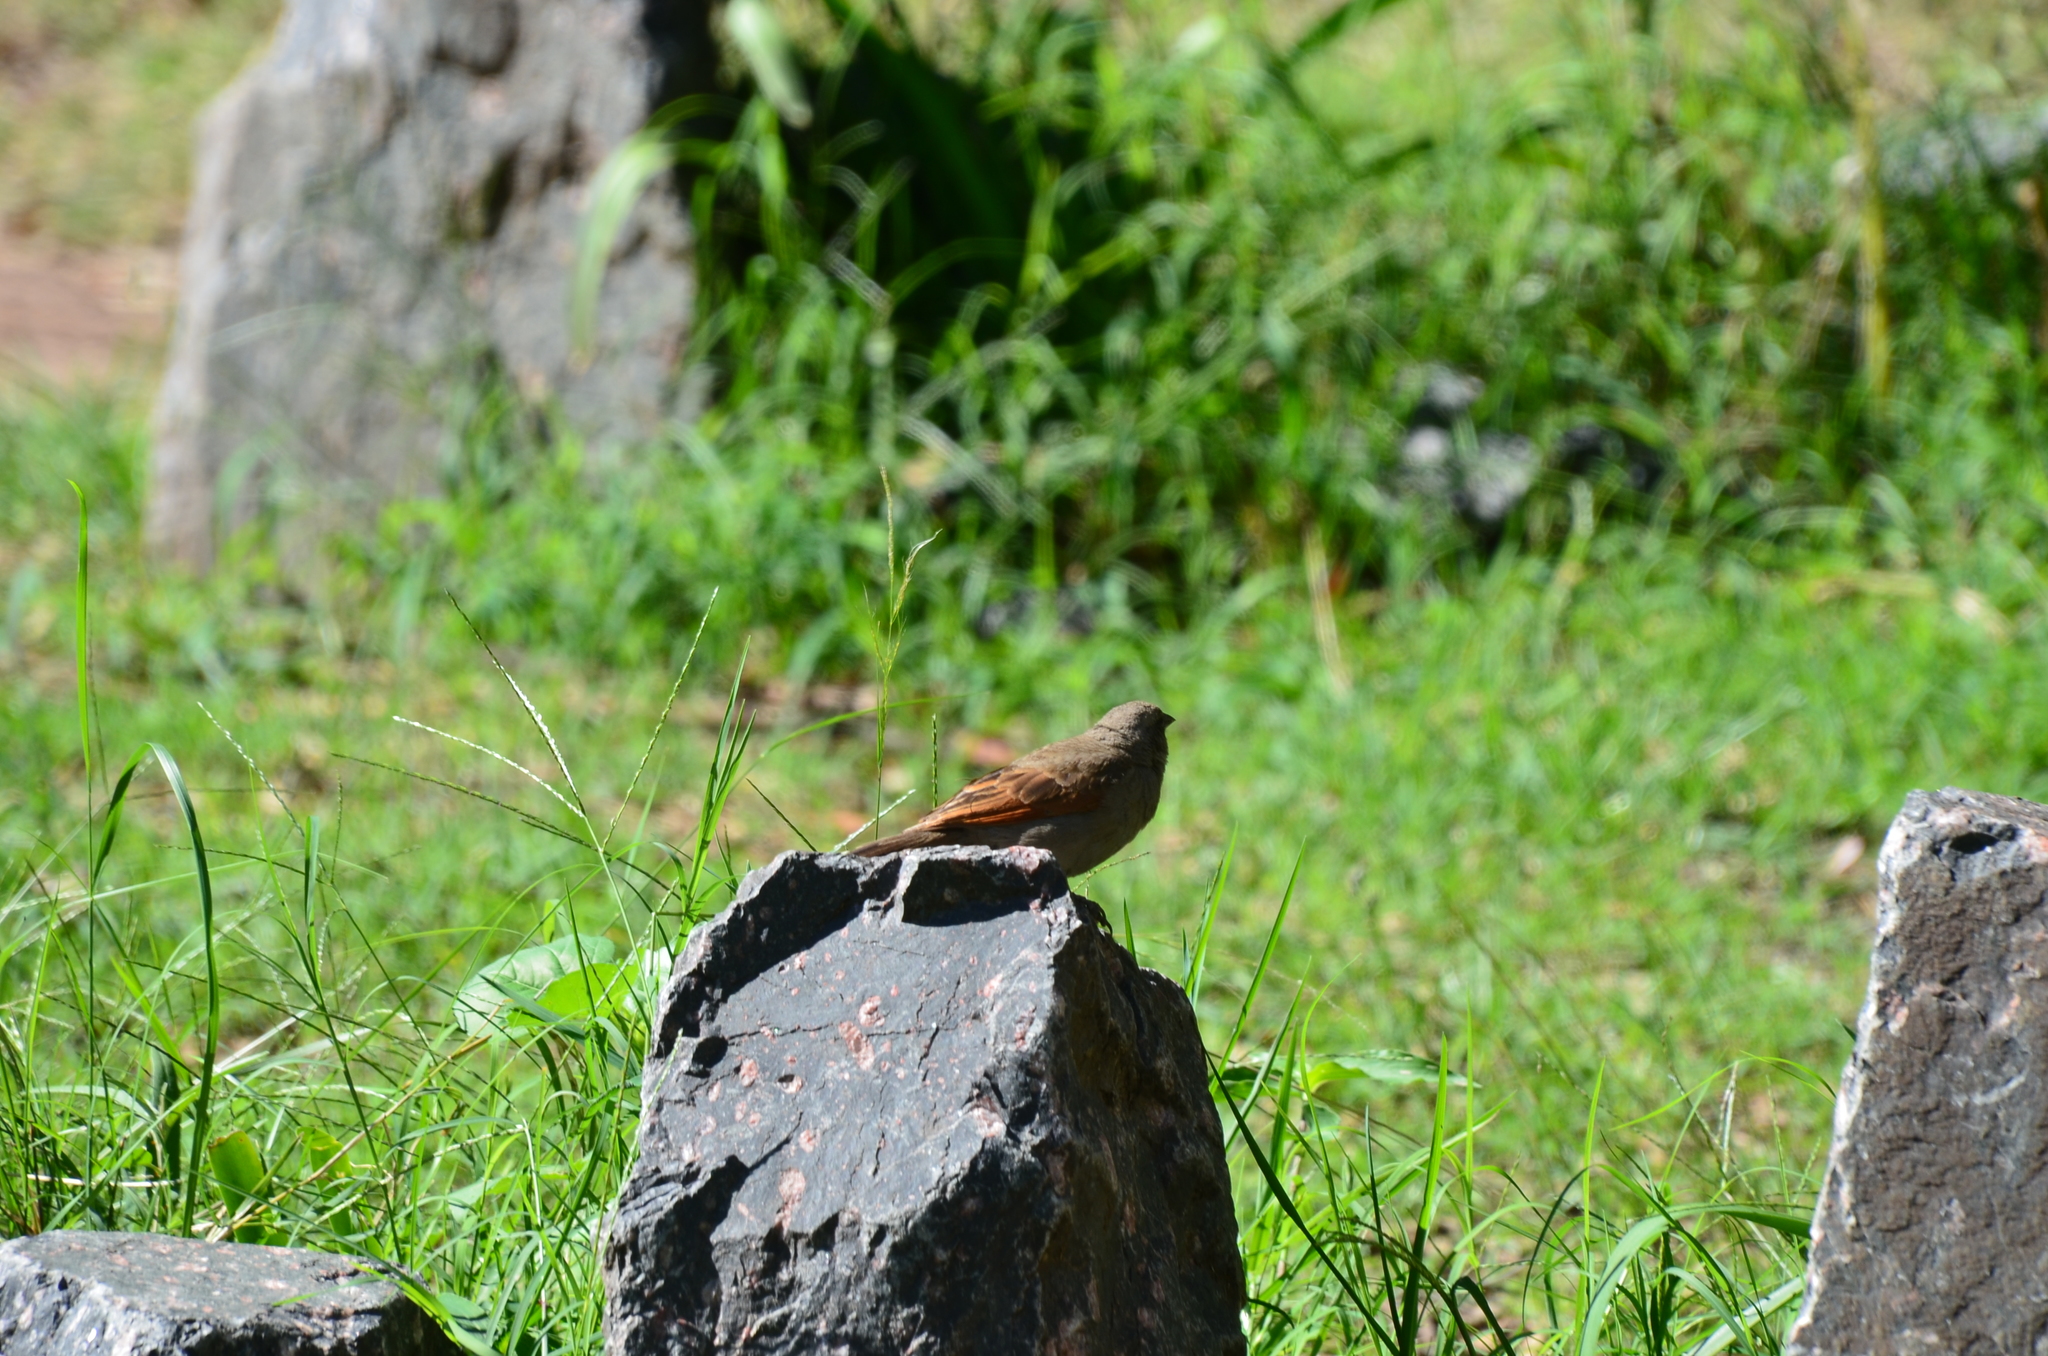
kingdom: Animalia
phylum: Chordata
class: Aves
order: Passeriformes
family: Icteridae
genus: Agelaioides
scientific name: Agelaioides badius
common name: Baywing
